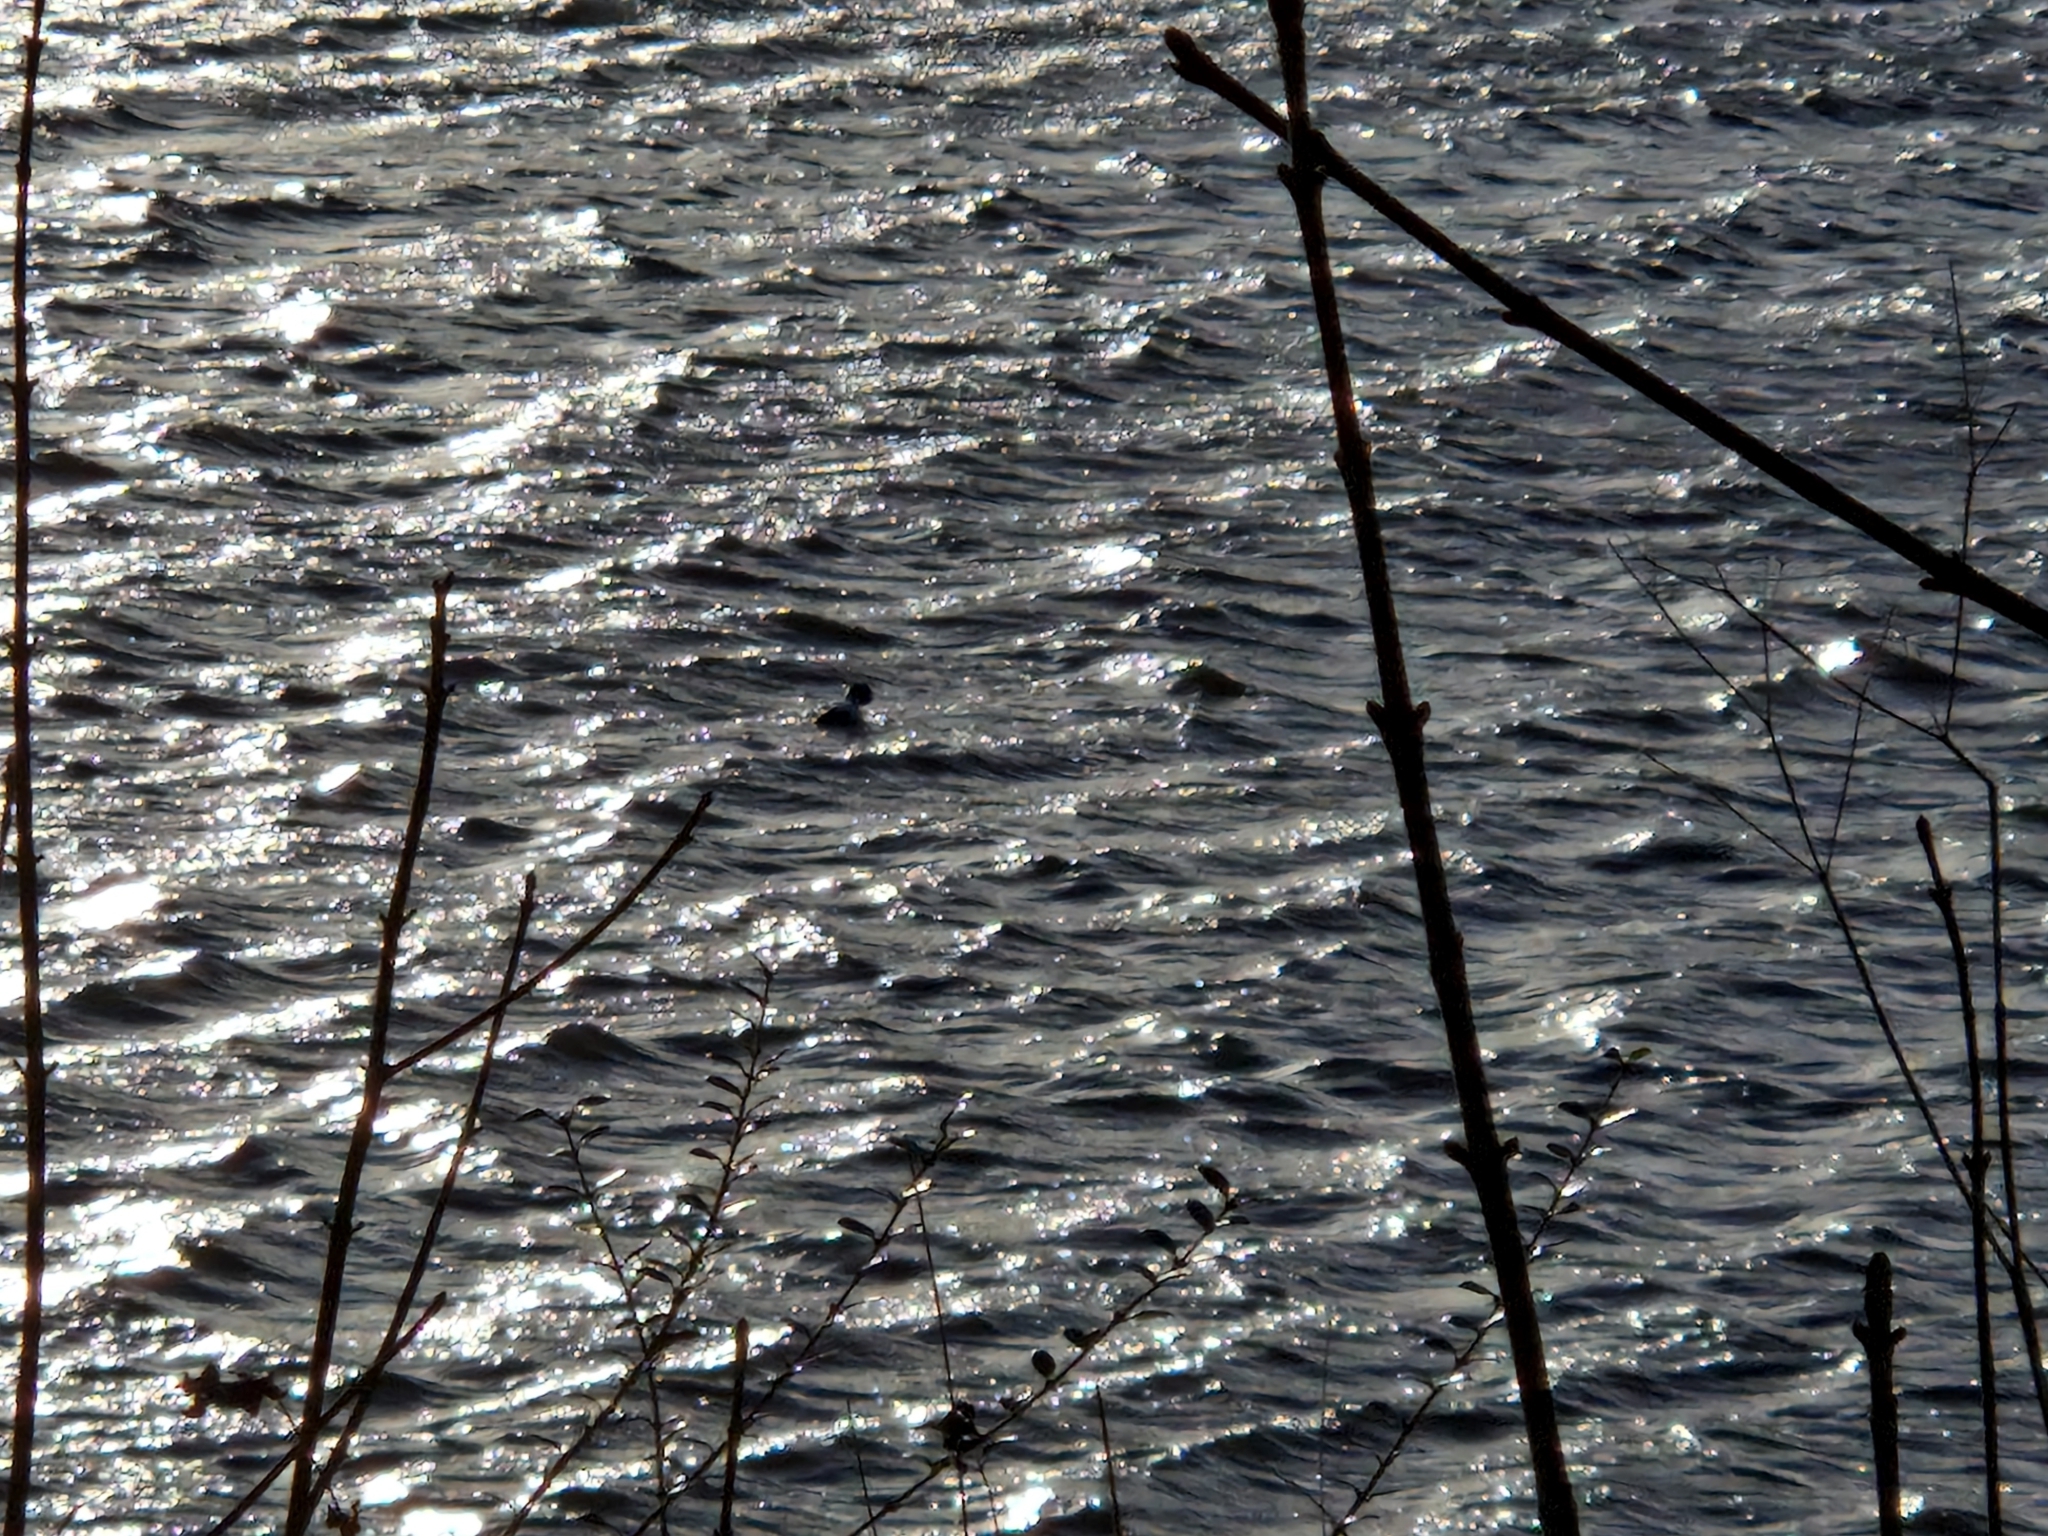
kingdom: Animalia
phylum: Chordata
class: Aves
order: Anseriformes
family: Anatidae
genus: Bucephala
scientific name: Bucephala clangula
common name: Common goldeneye
